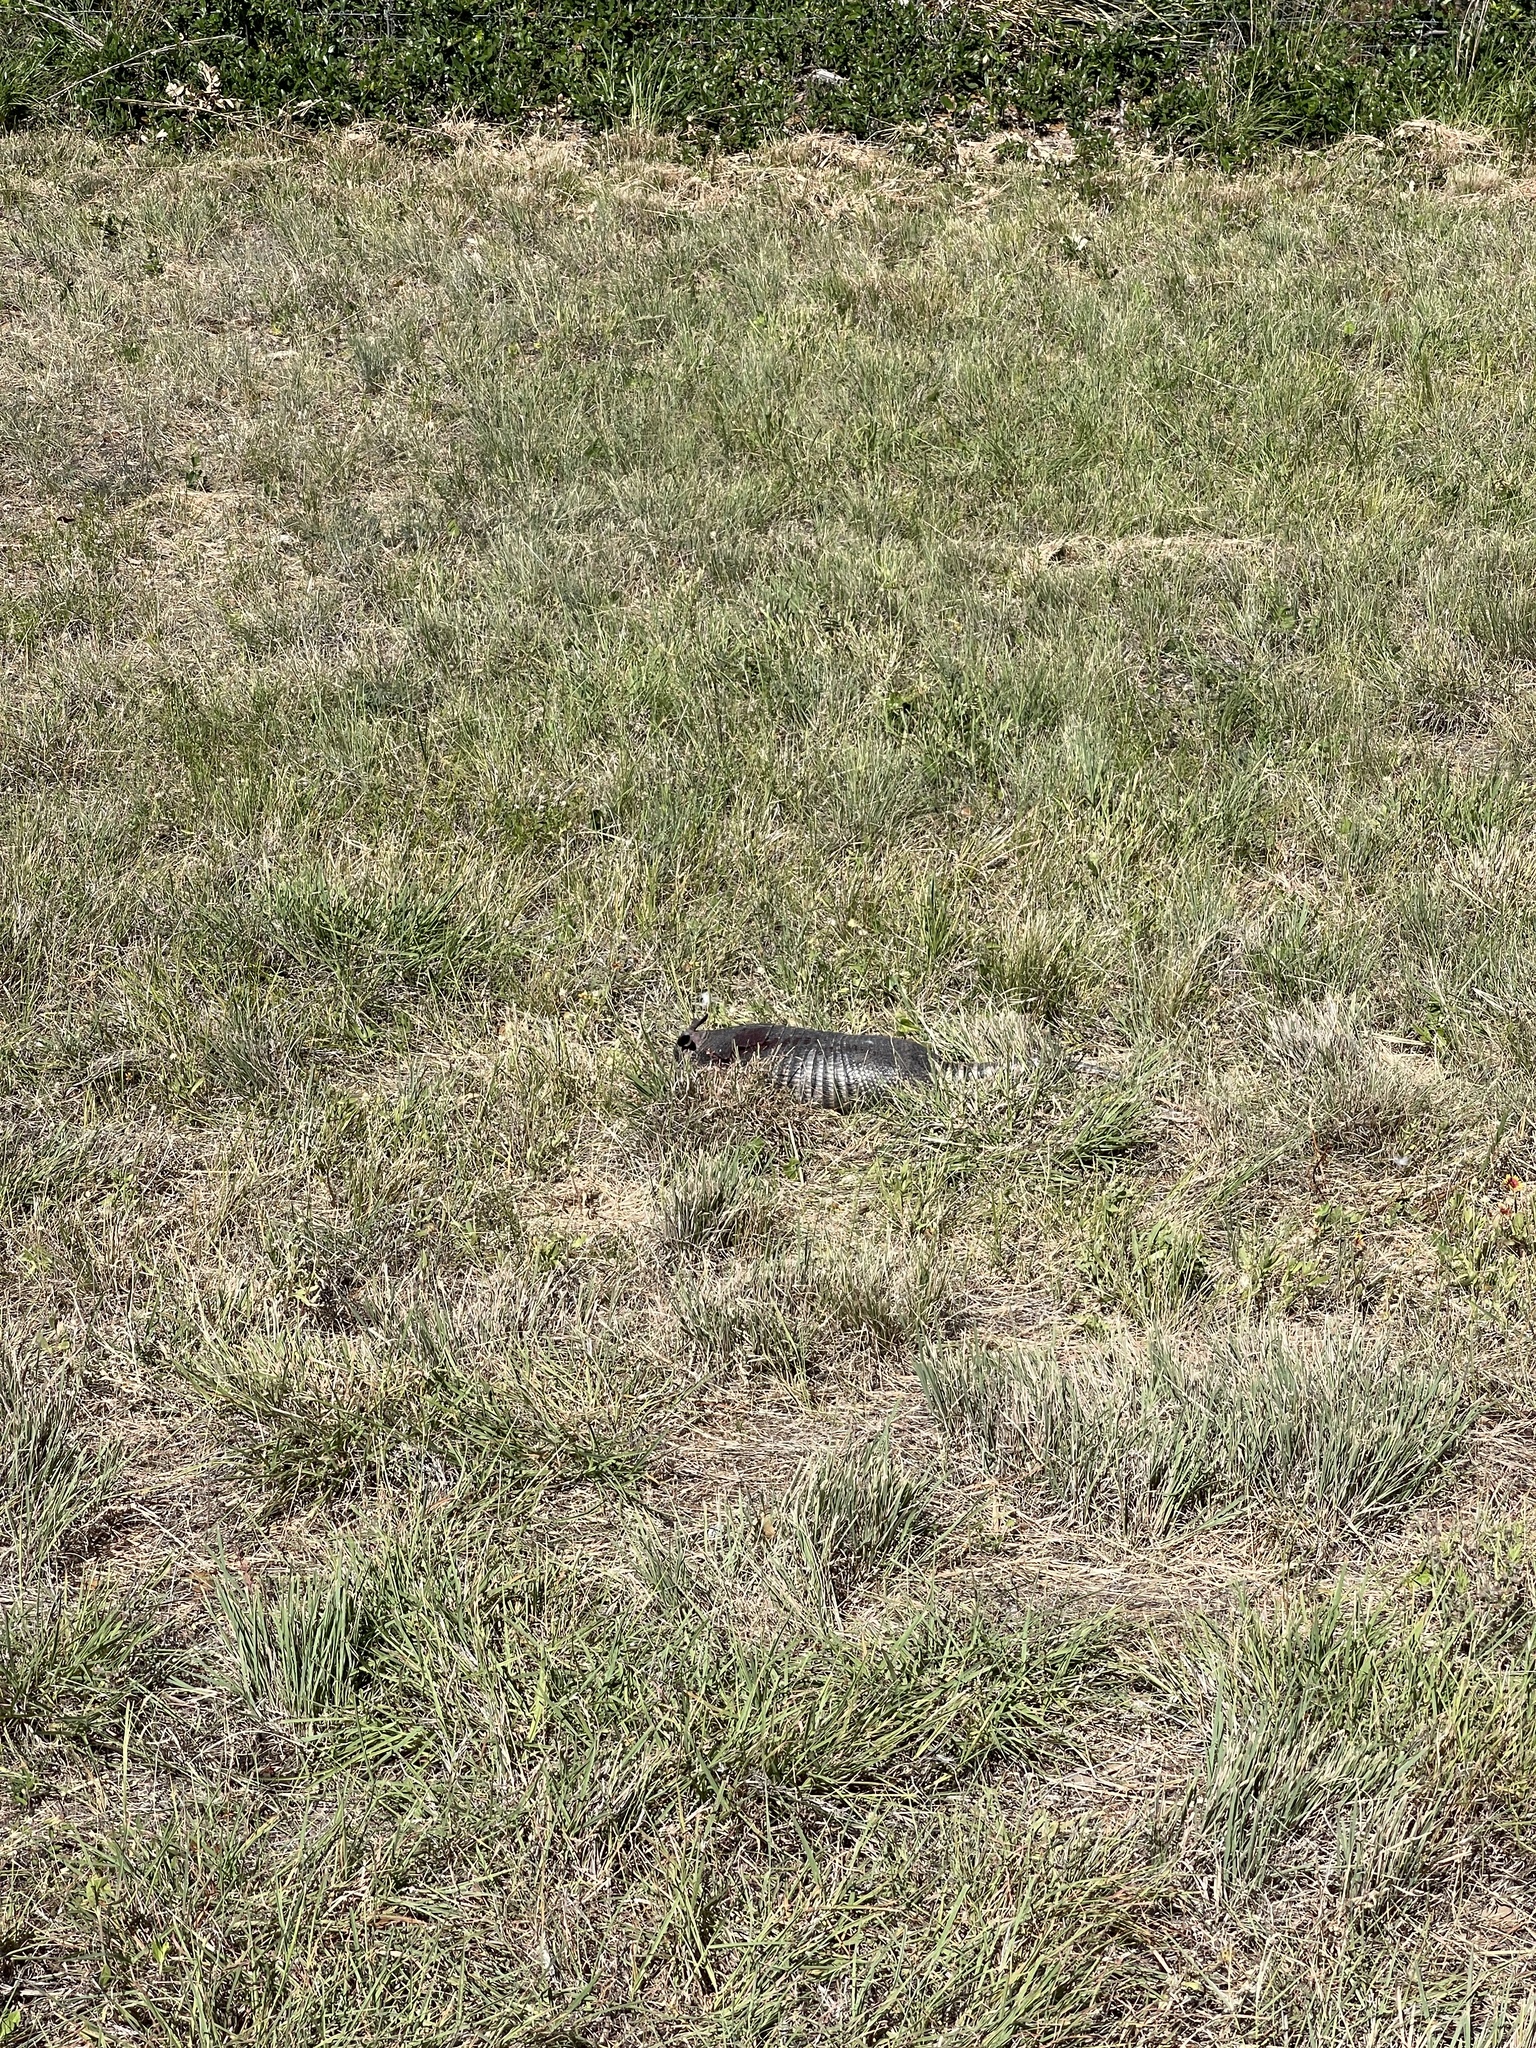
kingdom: Animalia
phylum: Chordata
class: Mammalia
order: Cingulata
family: Dasypodidae
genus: Dasypus
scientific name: Dasypus novemcinctus
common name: Nine-banded armadillo
